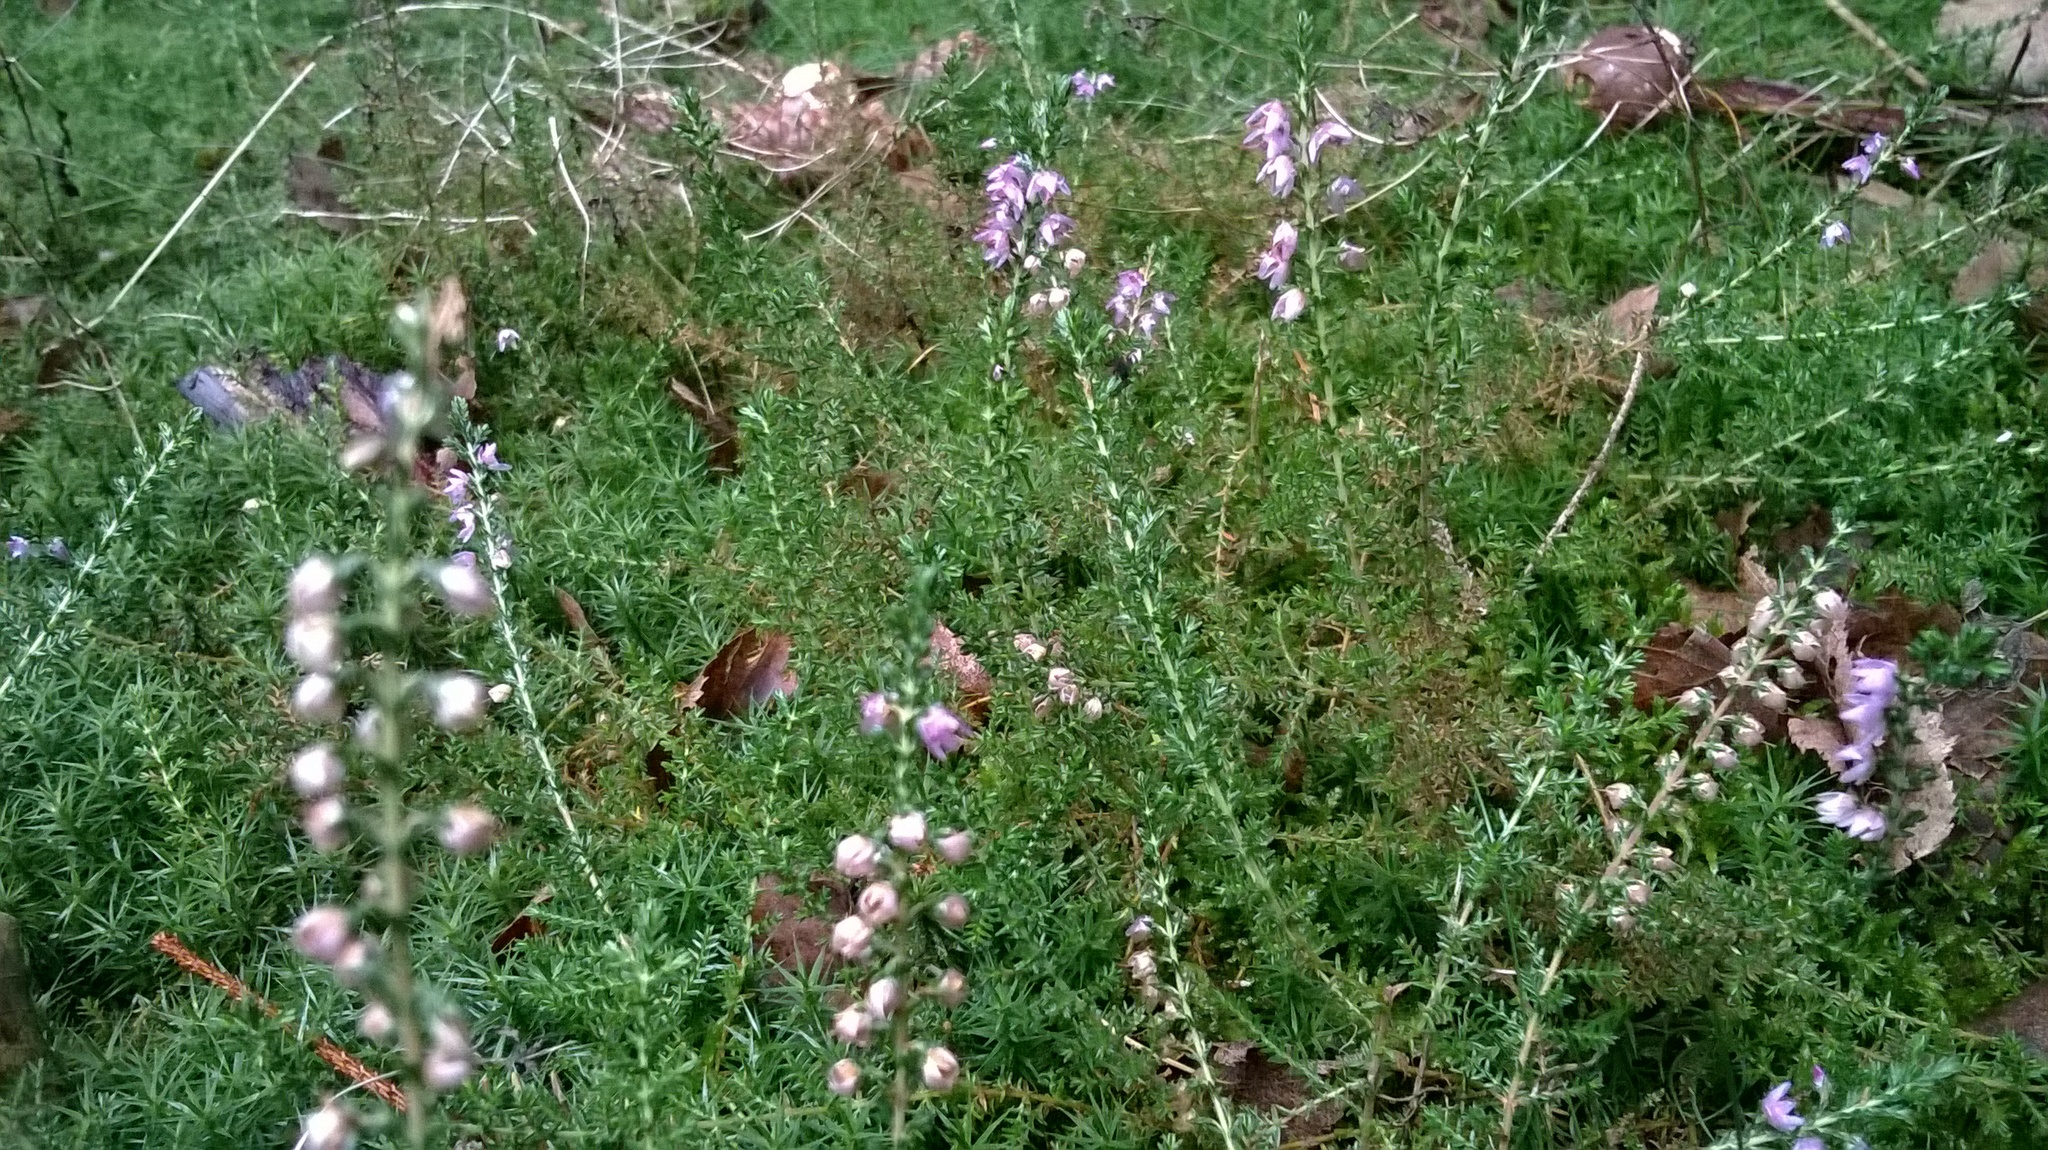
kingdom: Plantae
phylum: Tracheophyta
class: Magnoliopsida
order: Ericales
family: Ericaceae
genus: Calluna
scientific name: Calluna vulgaris
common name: Heather
